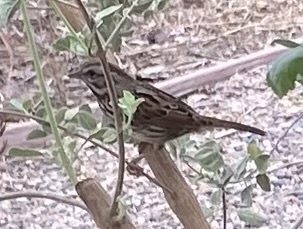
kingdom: Animalia
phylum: Chordata
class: Aves
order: Passeriformes
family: Passerellidae
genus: Melospiza
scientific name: Melospiza melodia
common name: Song sparrow
